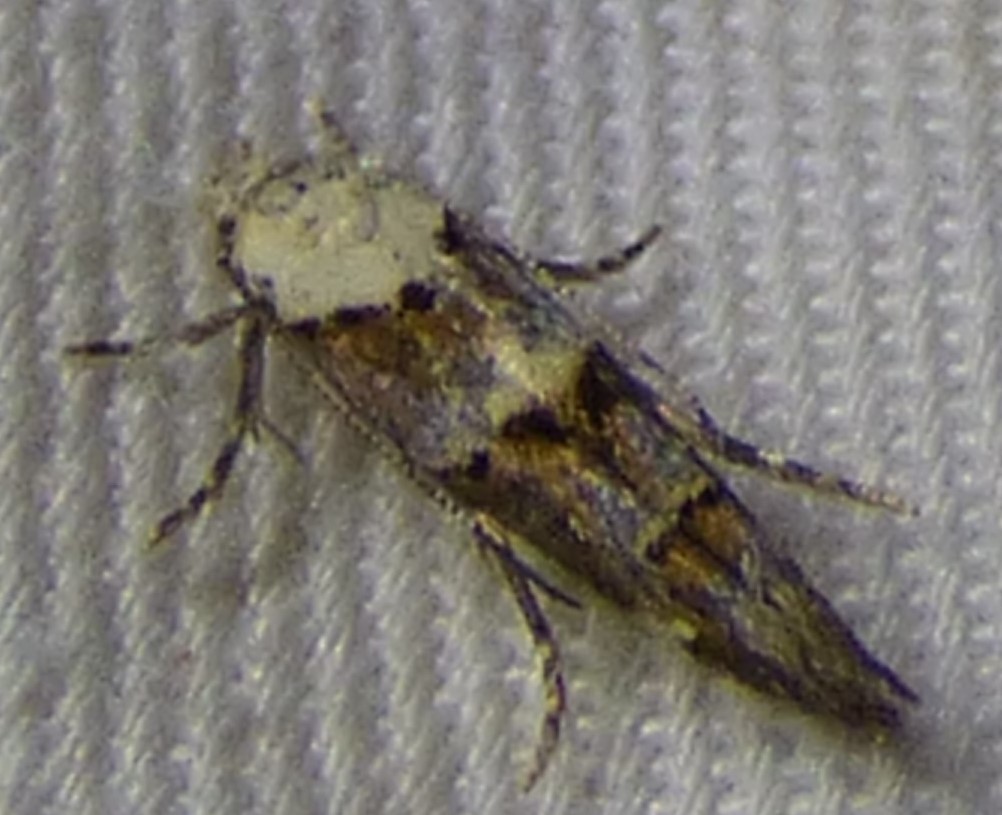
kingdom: Animalia
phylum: Arthropoda
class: Insecta
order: Lepidoptera
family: Momphidae
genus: Mompha
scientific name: Mompha albocapitella
